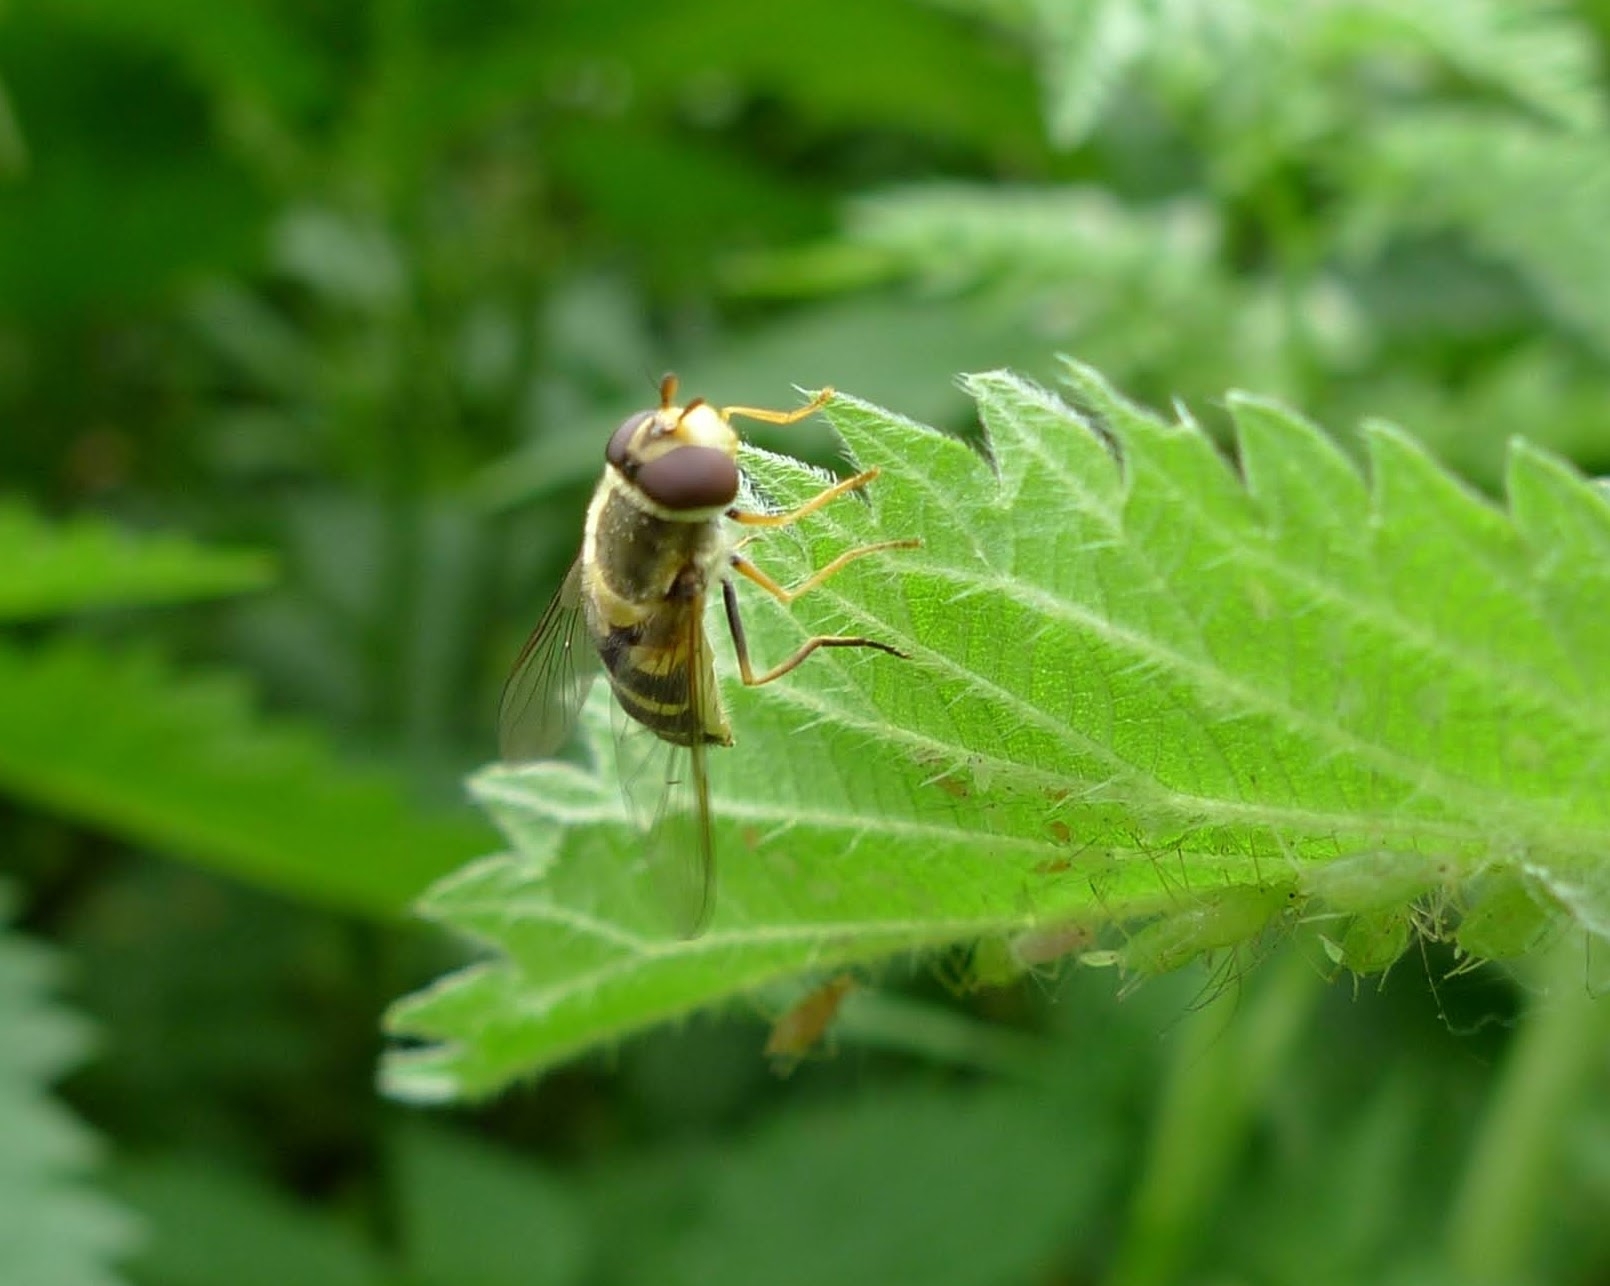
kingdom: Animalia
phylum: Arthropoda
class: Insecta
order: Diptera
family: Syrphidae
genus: Syrphus
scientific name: Syrphus
